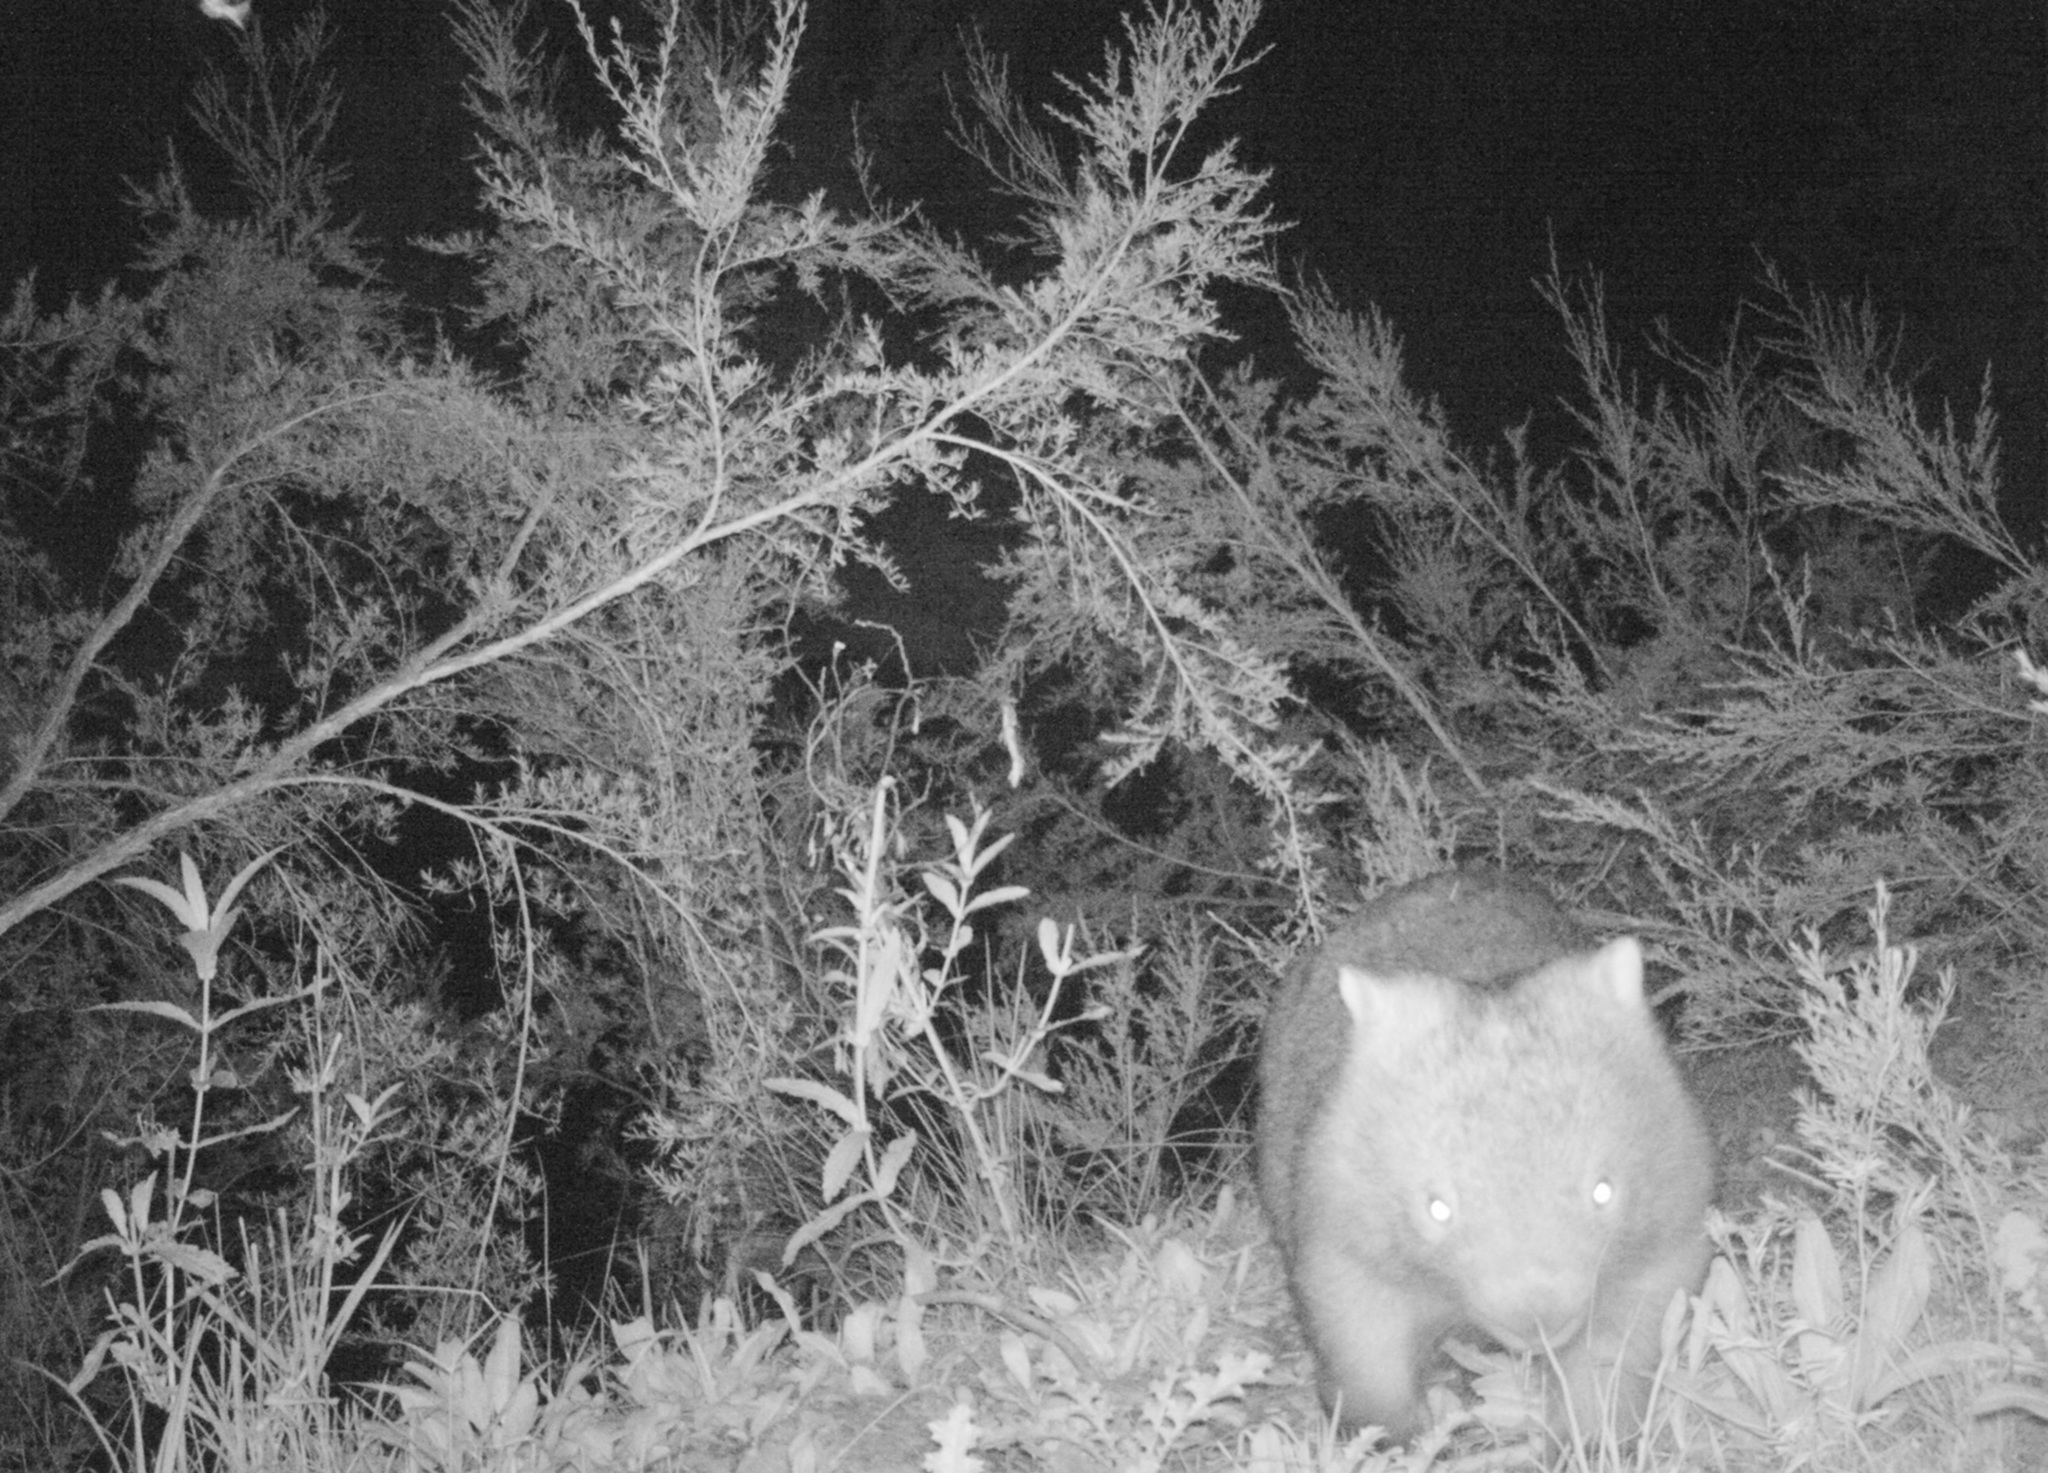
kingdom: Animalia
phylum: Chordata
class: Mammalia
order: Diprotodontia
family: Vombatidae
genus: Vombatus
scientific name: Vombatus ursinus
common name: Common wombat
